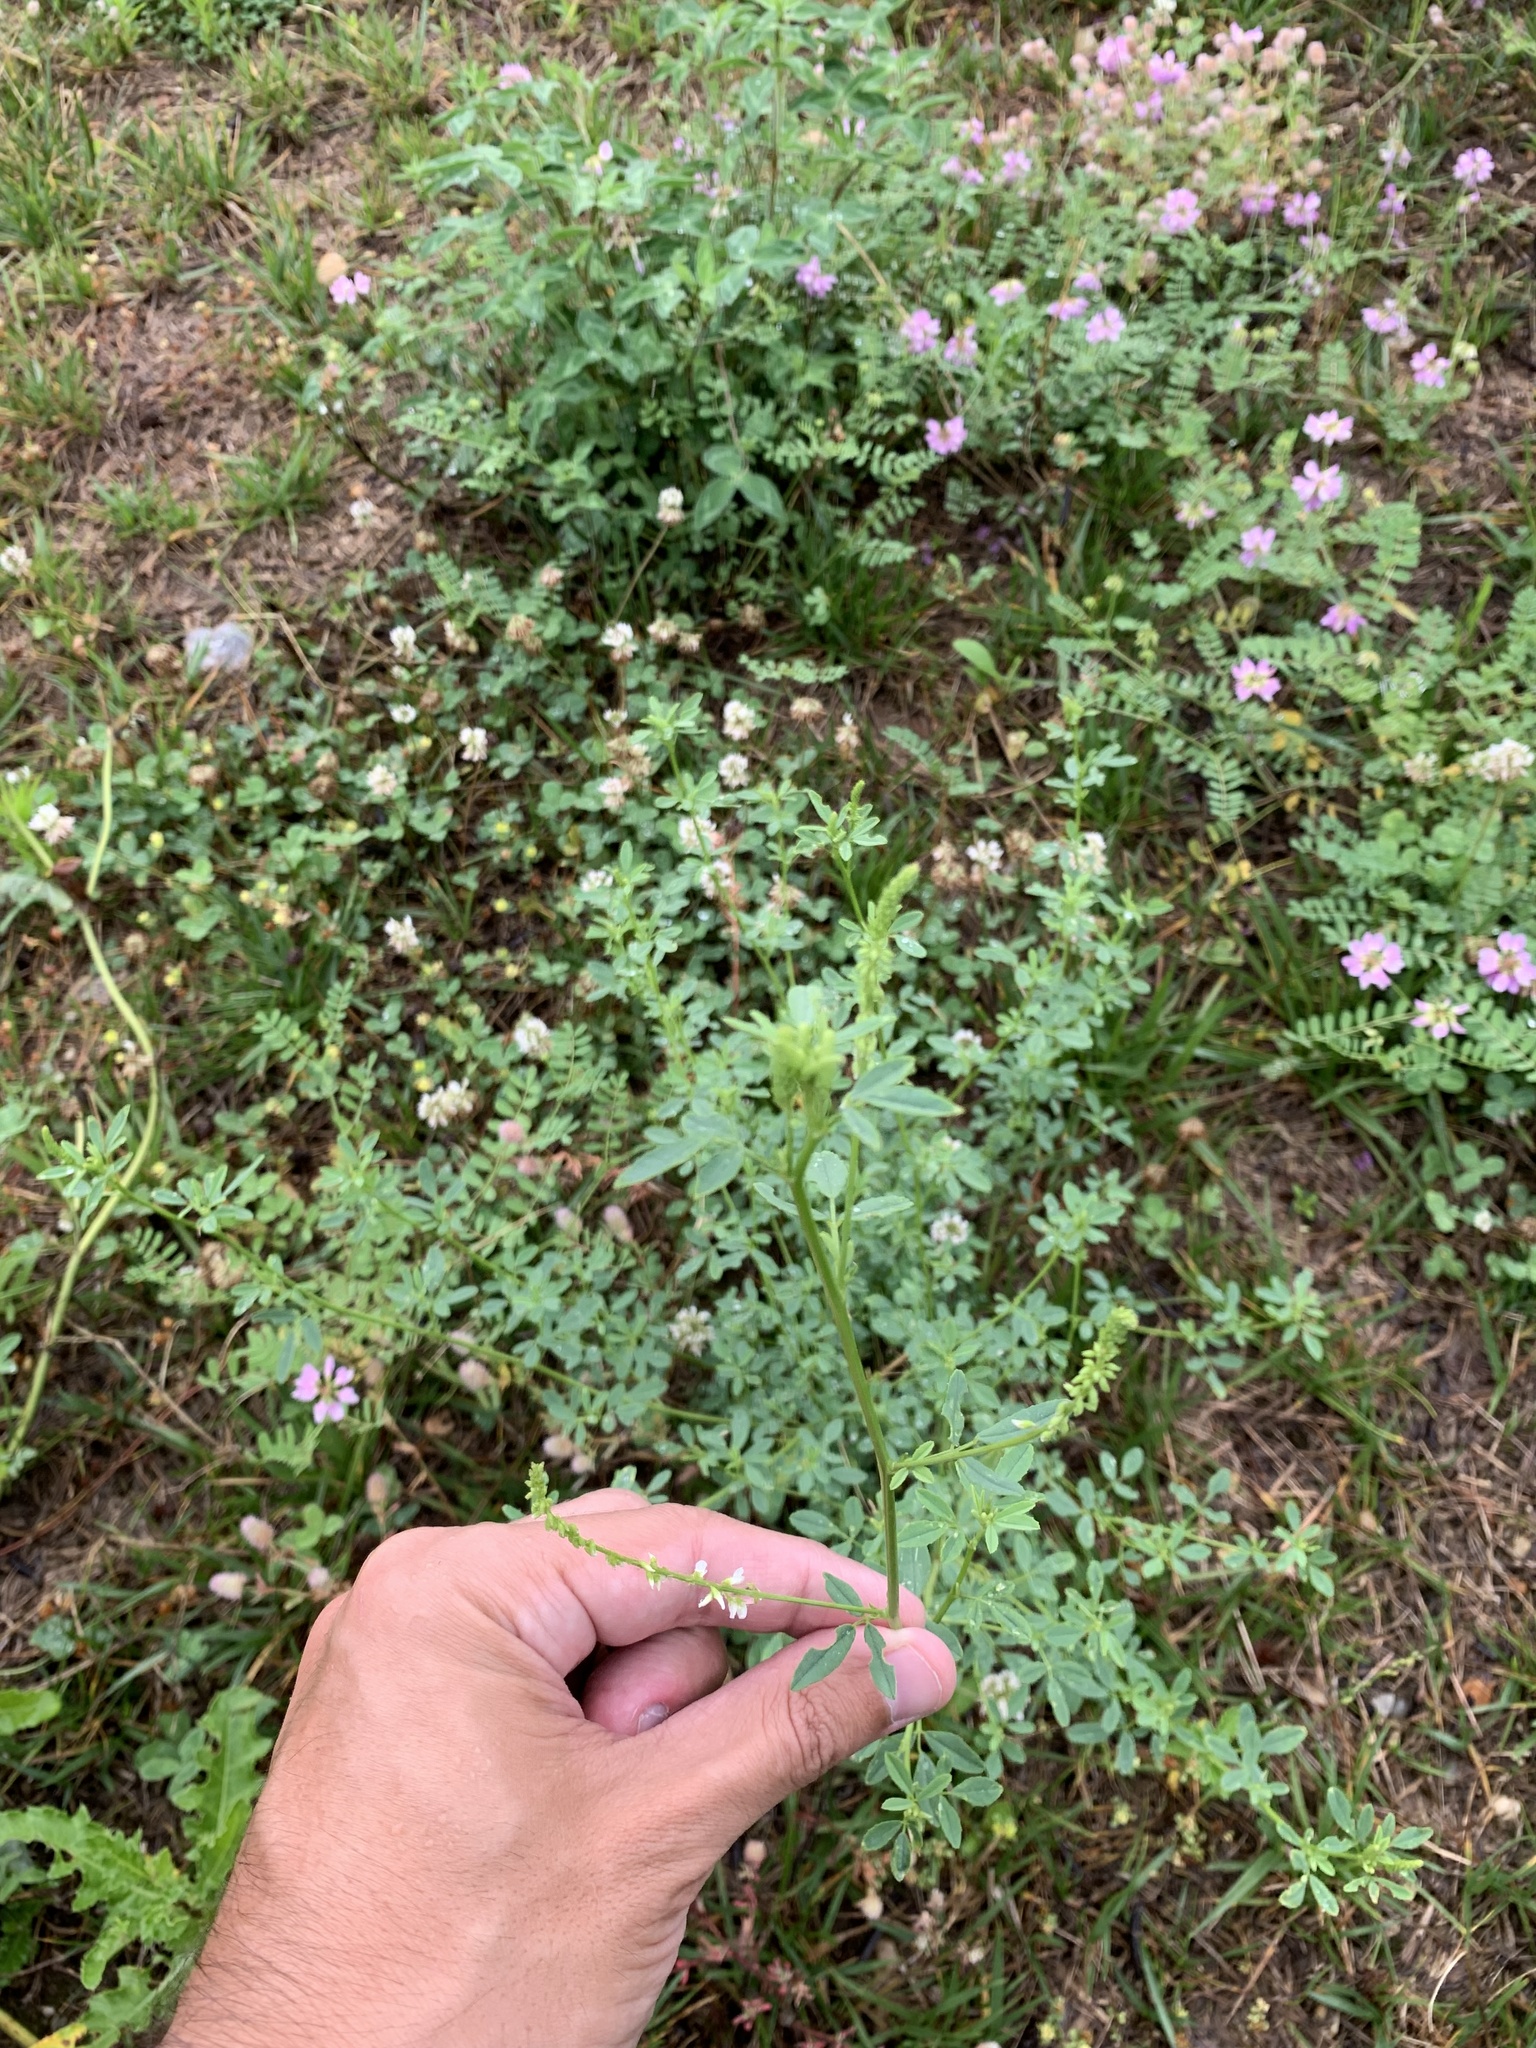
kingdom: Plantae
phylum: Tracheophyta
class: Magnoliopsida
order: Fabales
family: Fabaceae
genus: Melilotus
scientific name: Melilotus albus
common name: White melilot
